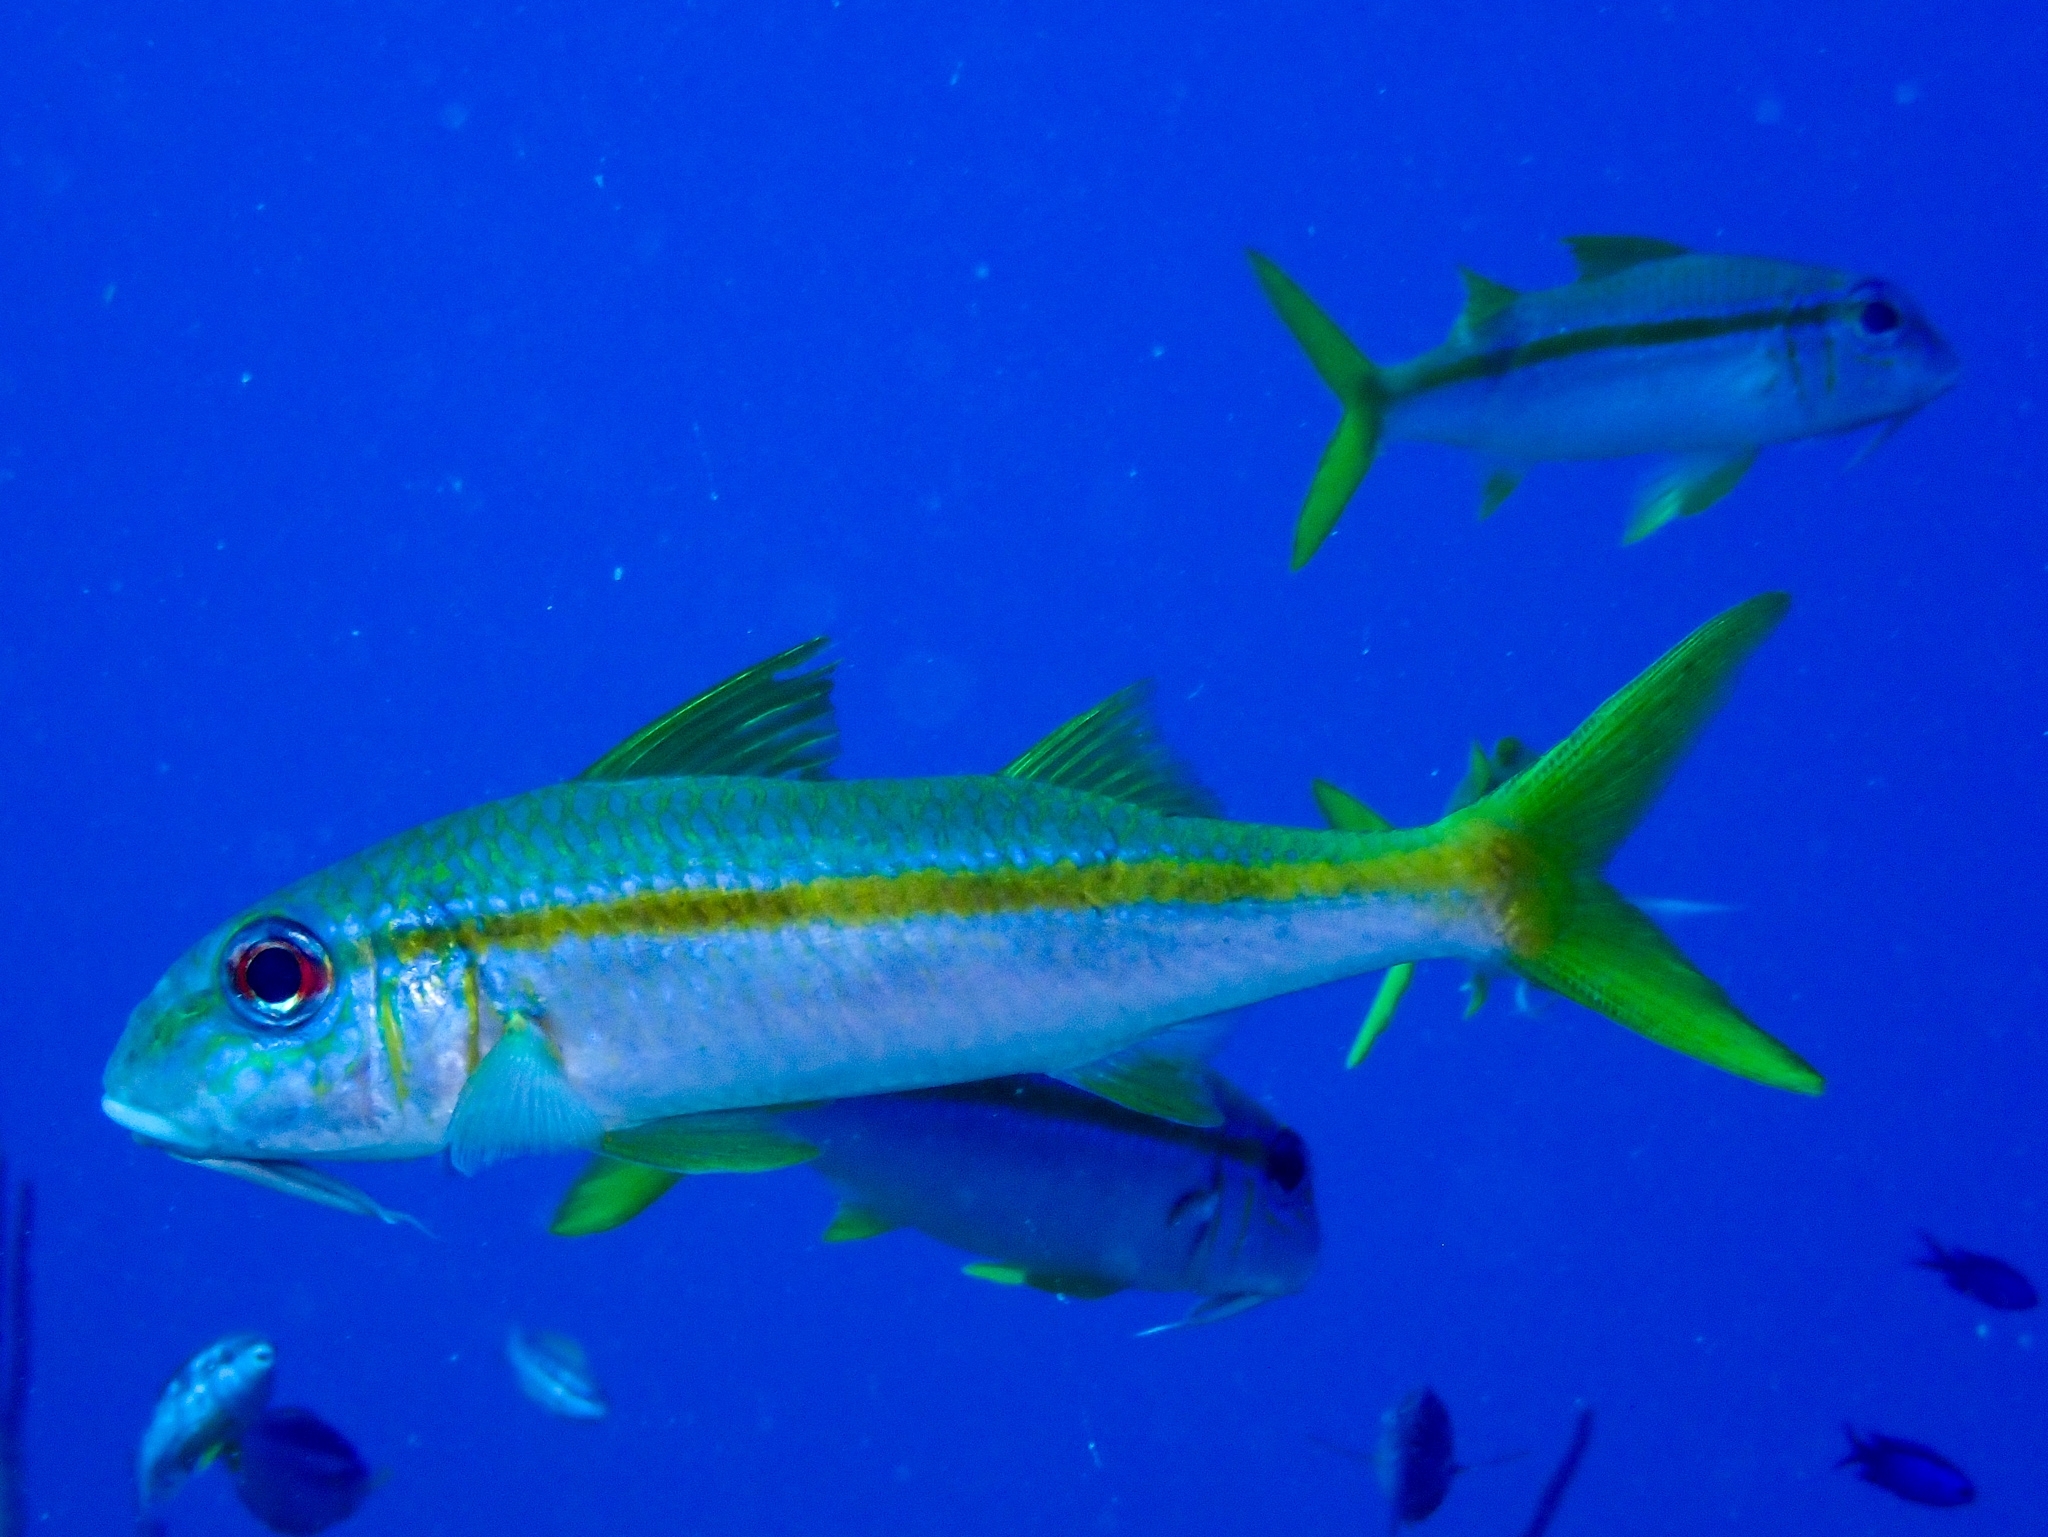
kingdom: Animalia
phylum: Chordata
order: Perciformes
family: Mullidae
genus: Mulloidichthys
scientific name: Mulloidichthys martinicus
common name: Yellow goatfish
